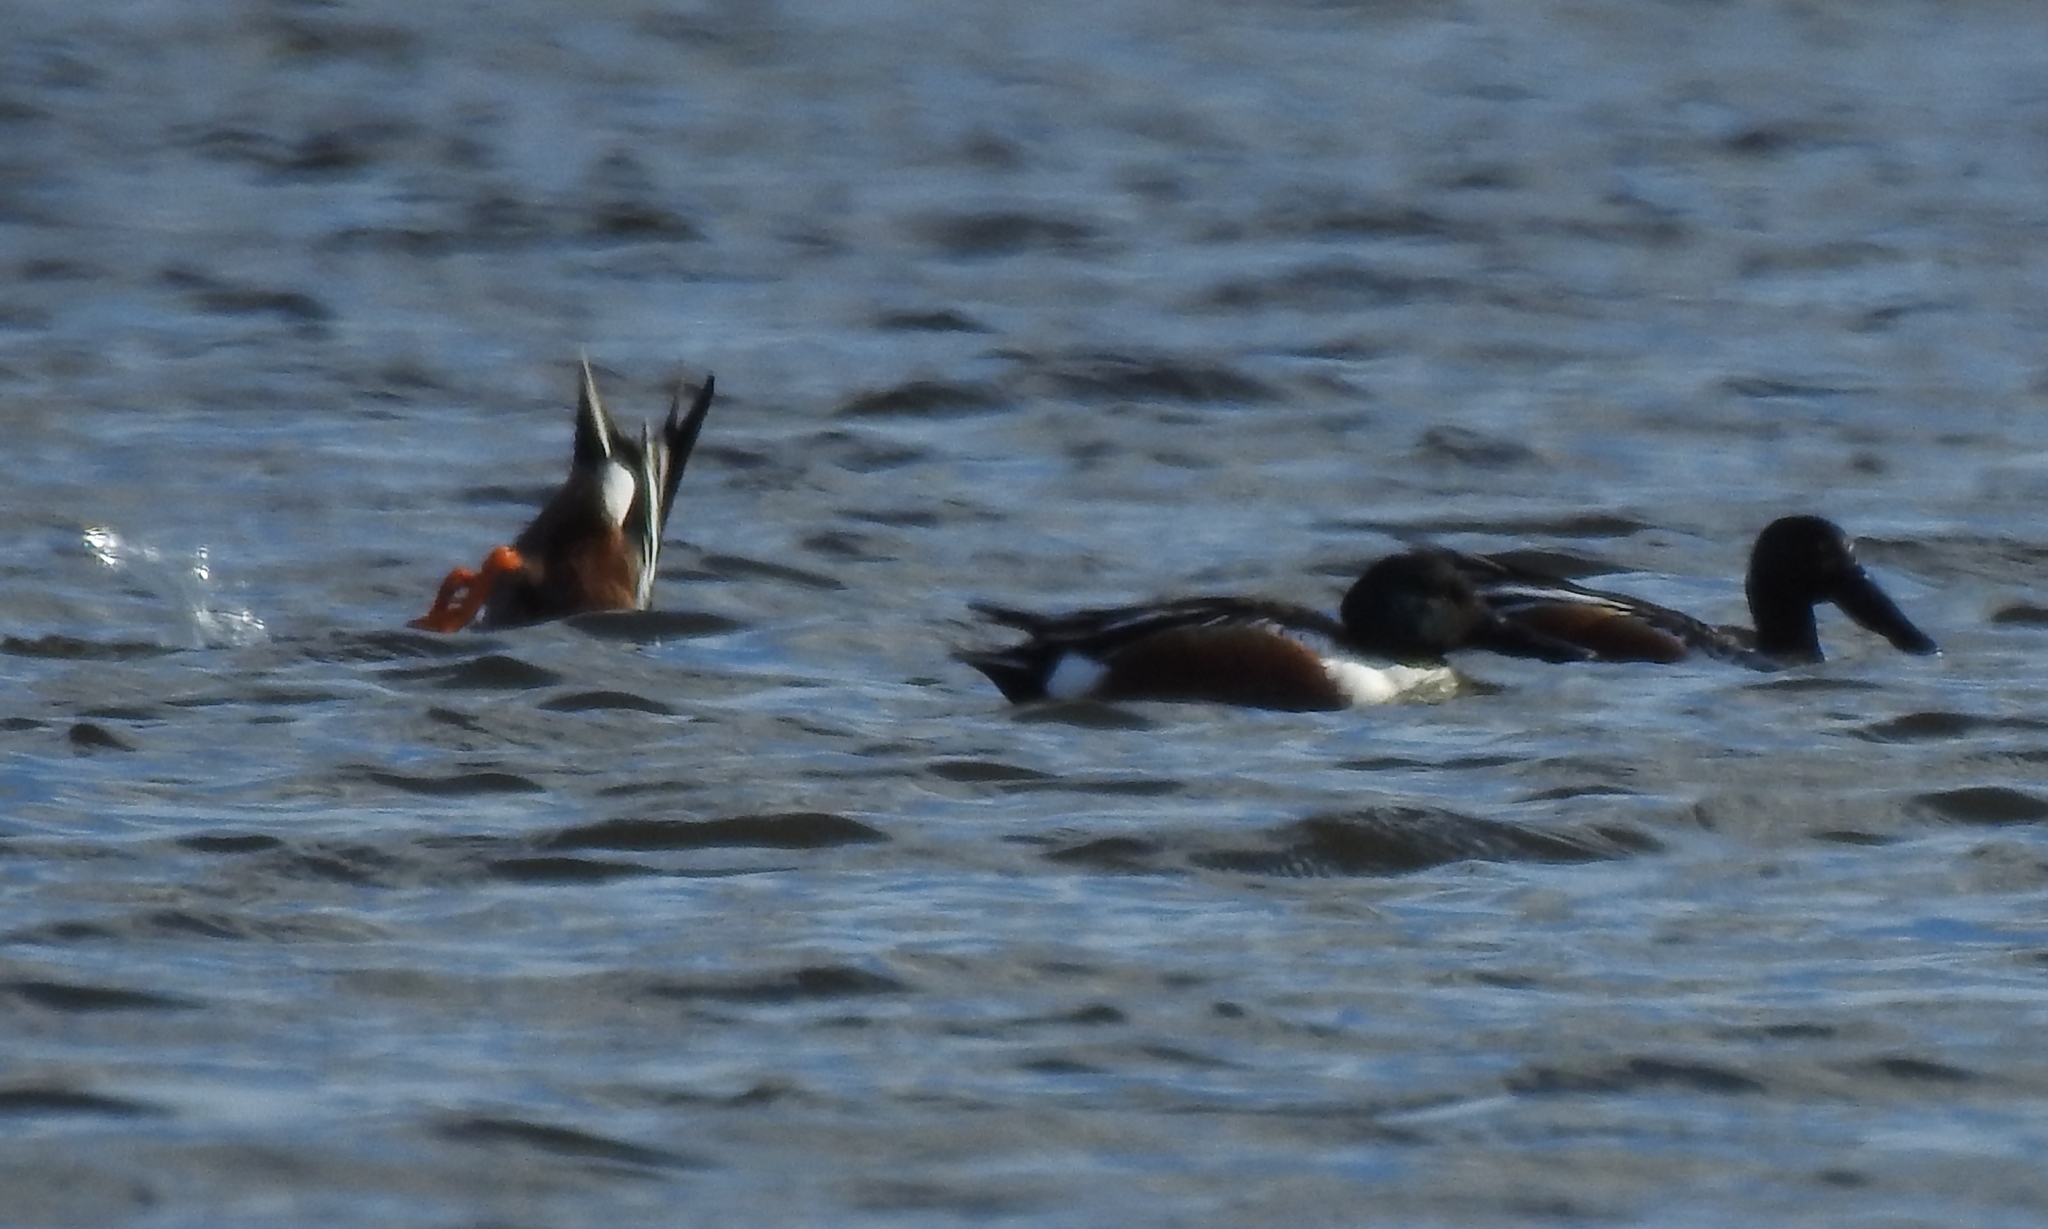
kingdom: Animalia
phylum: Chordata
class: Aves
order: Anseriformes
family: Anatidae
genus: Spatula
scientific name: Spatula clypeata
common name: Northern shoveler
